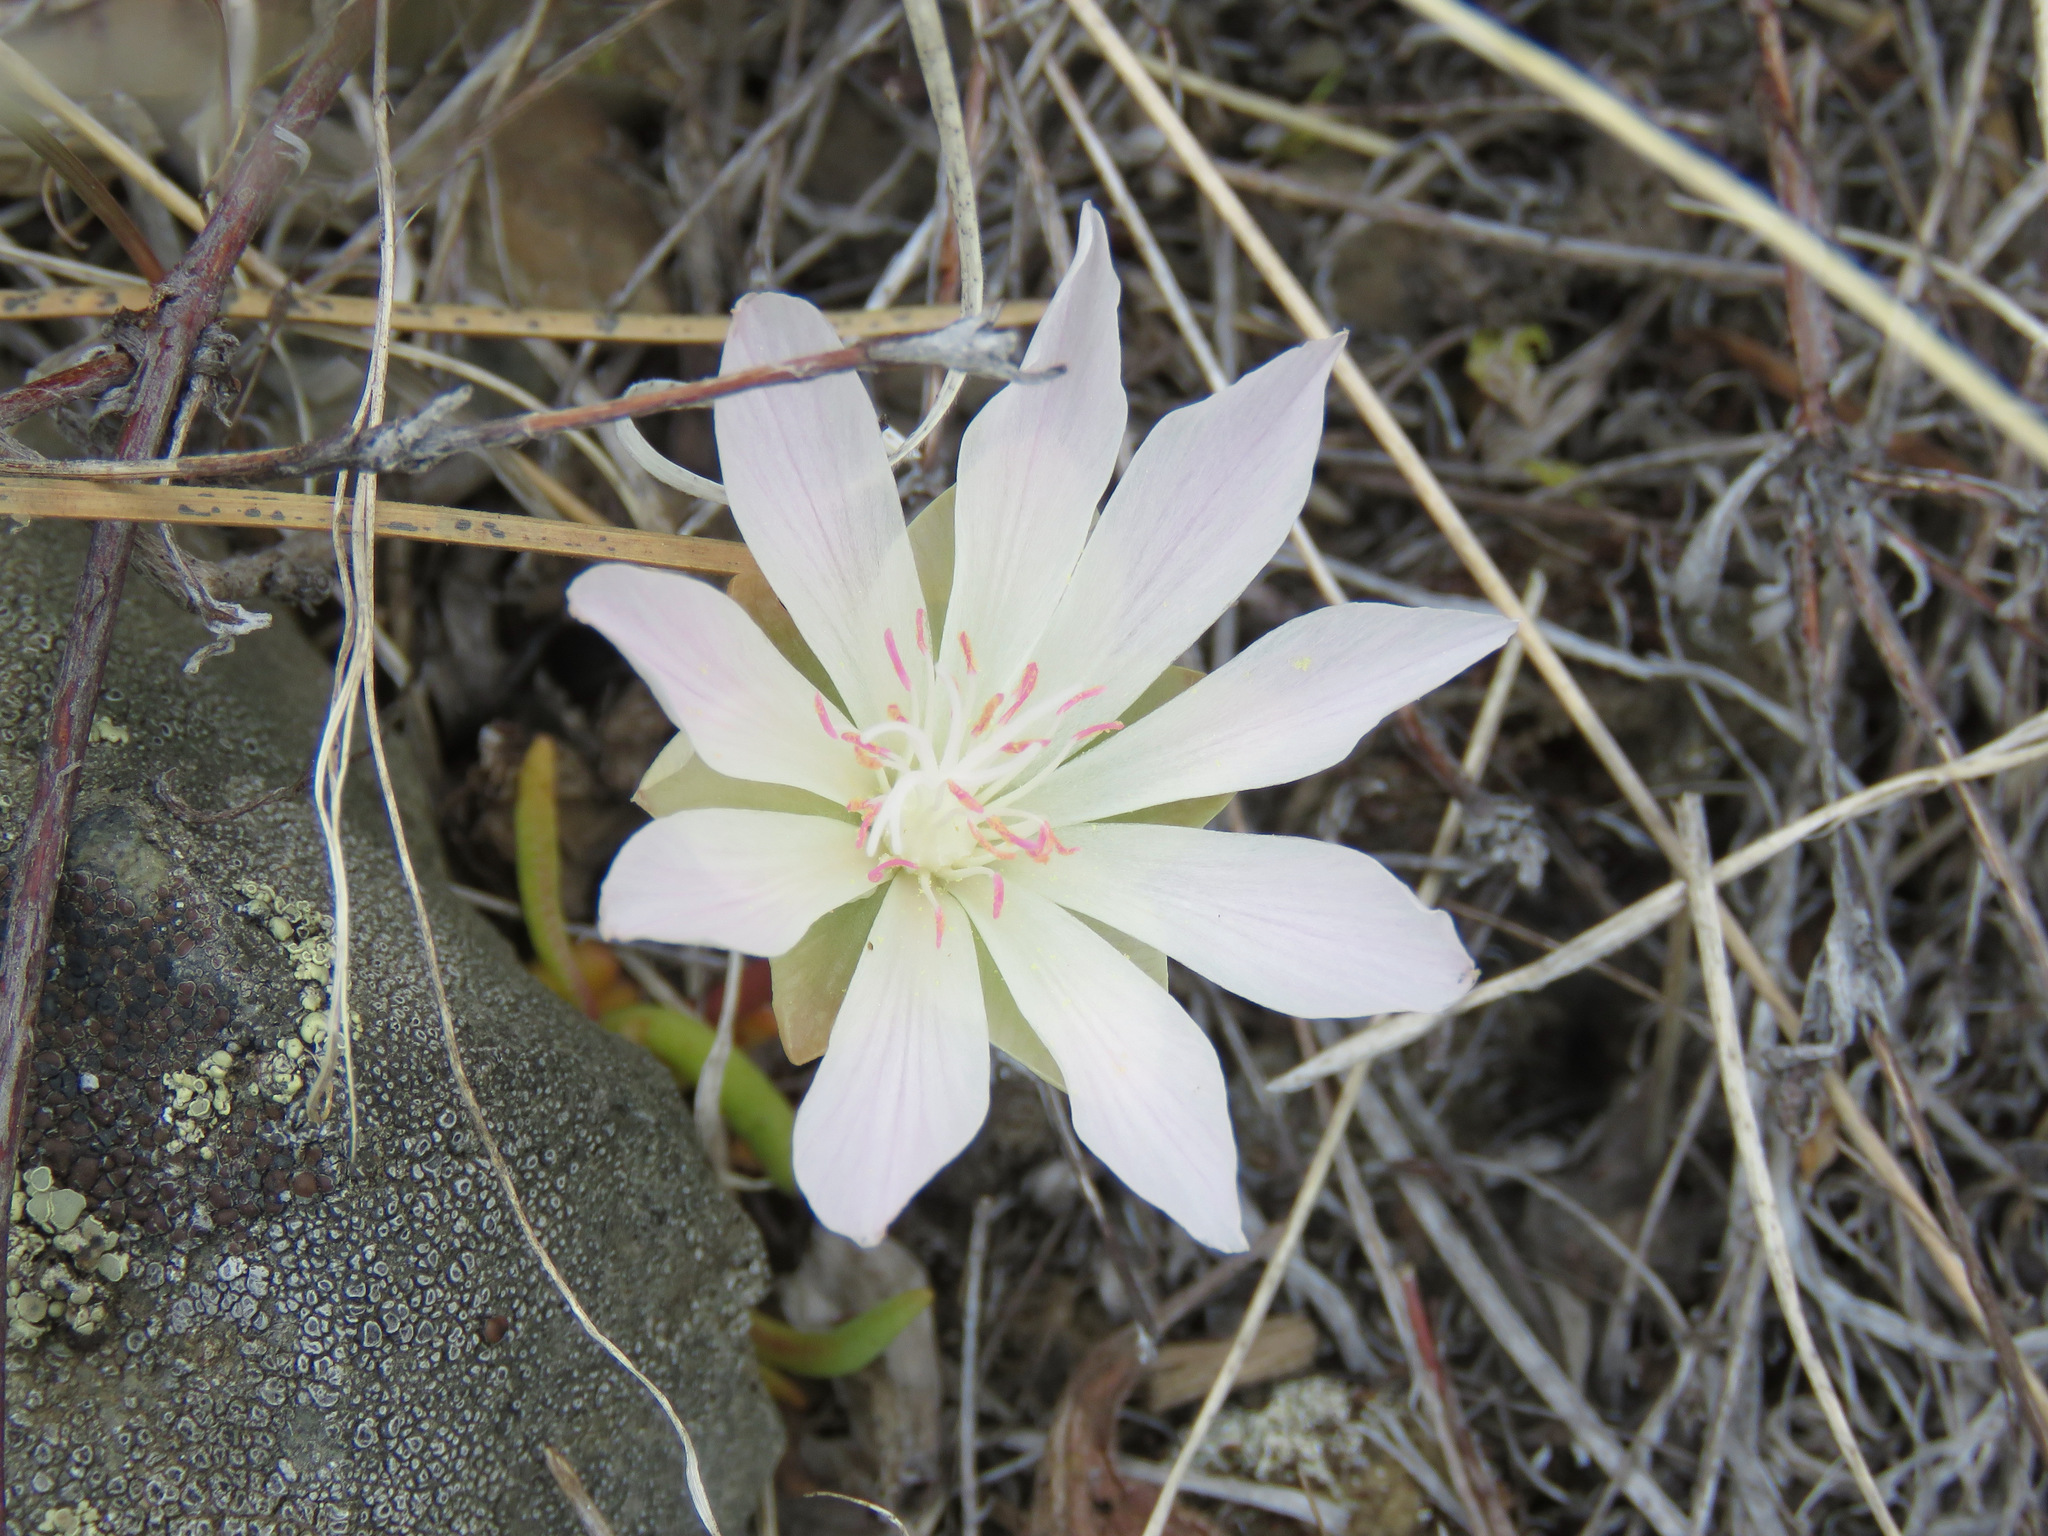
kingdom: Plantae
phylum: Tracheophyta
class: Magnoliopsida
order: Caryophyllales
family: Montiaceae
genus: Lewisia
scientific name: Lewisia rediviva
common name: Bitter-root
